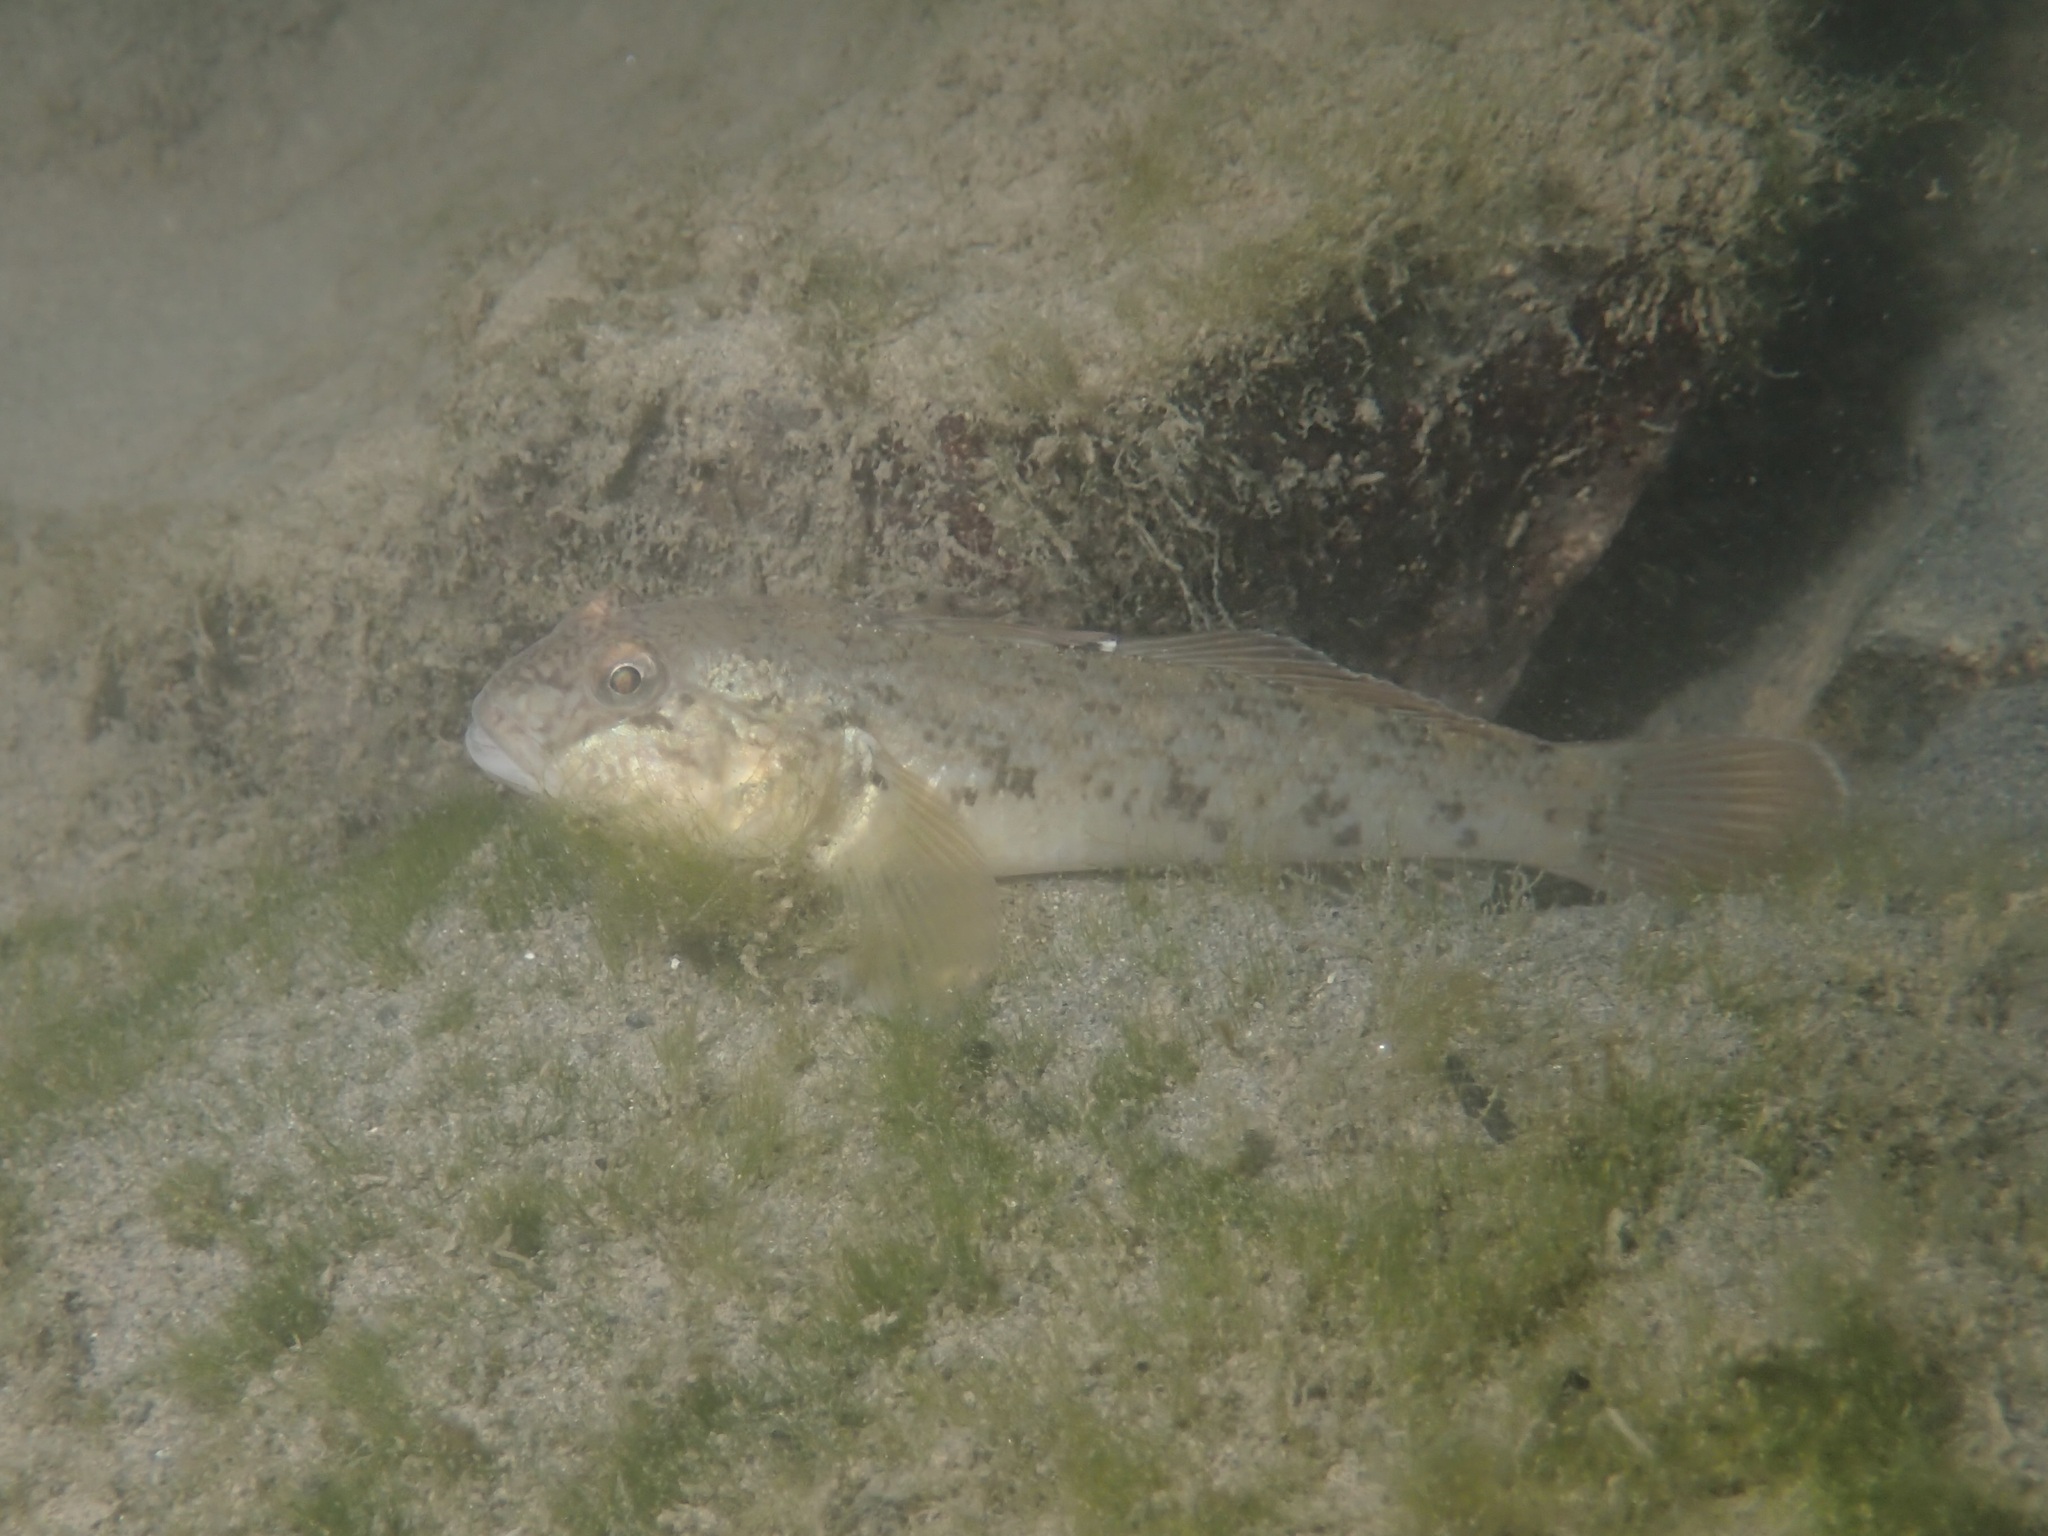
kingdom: Animalia
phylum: Chordata
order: Perciformes
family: Gobiidae
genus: Neogobius
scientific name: Neogobius melanostomus
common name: Round goby
